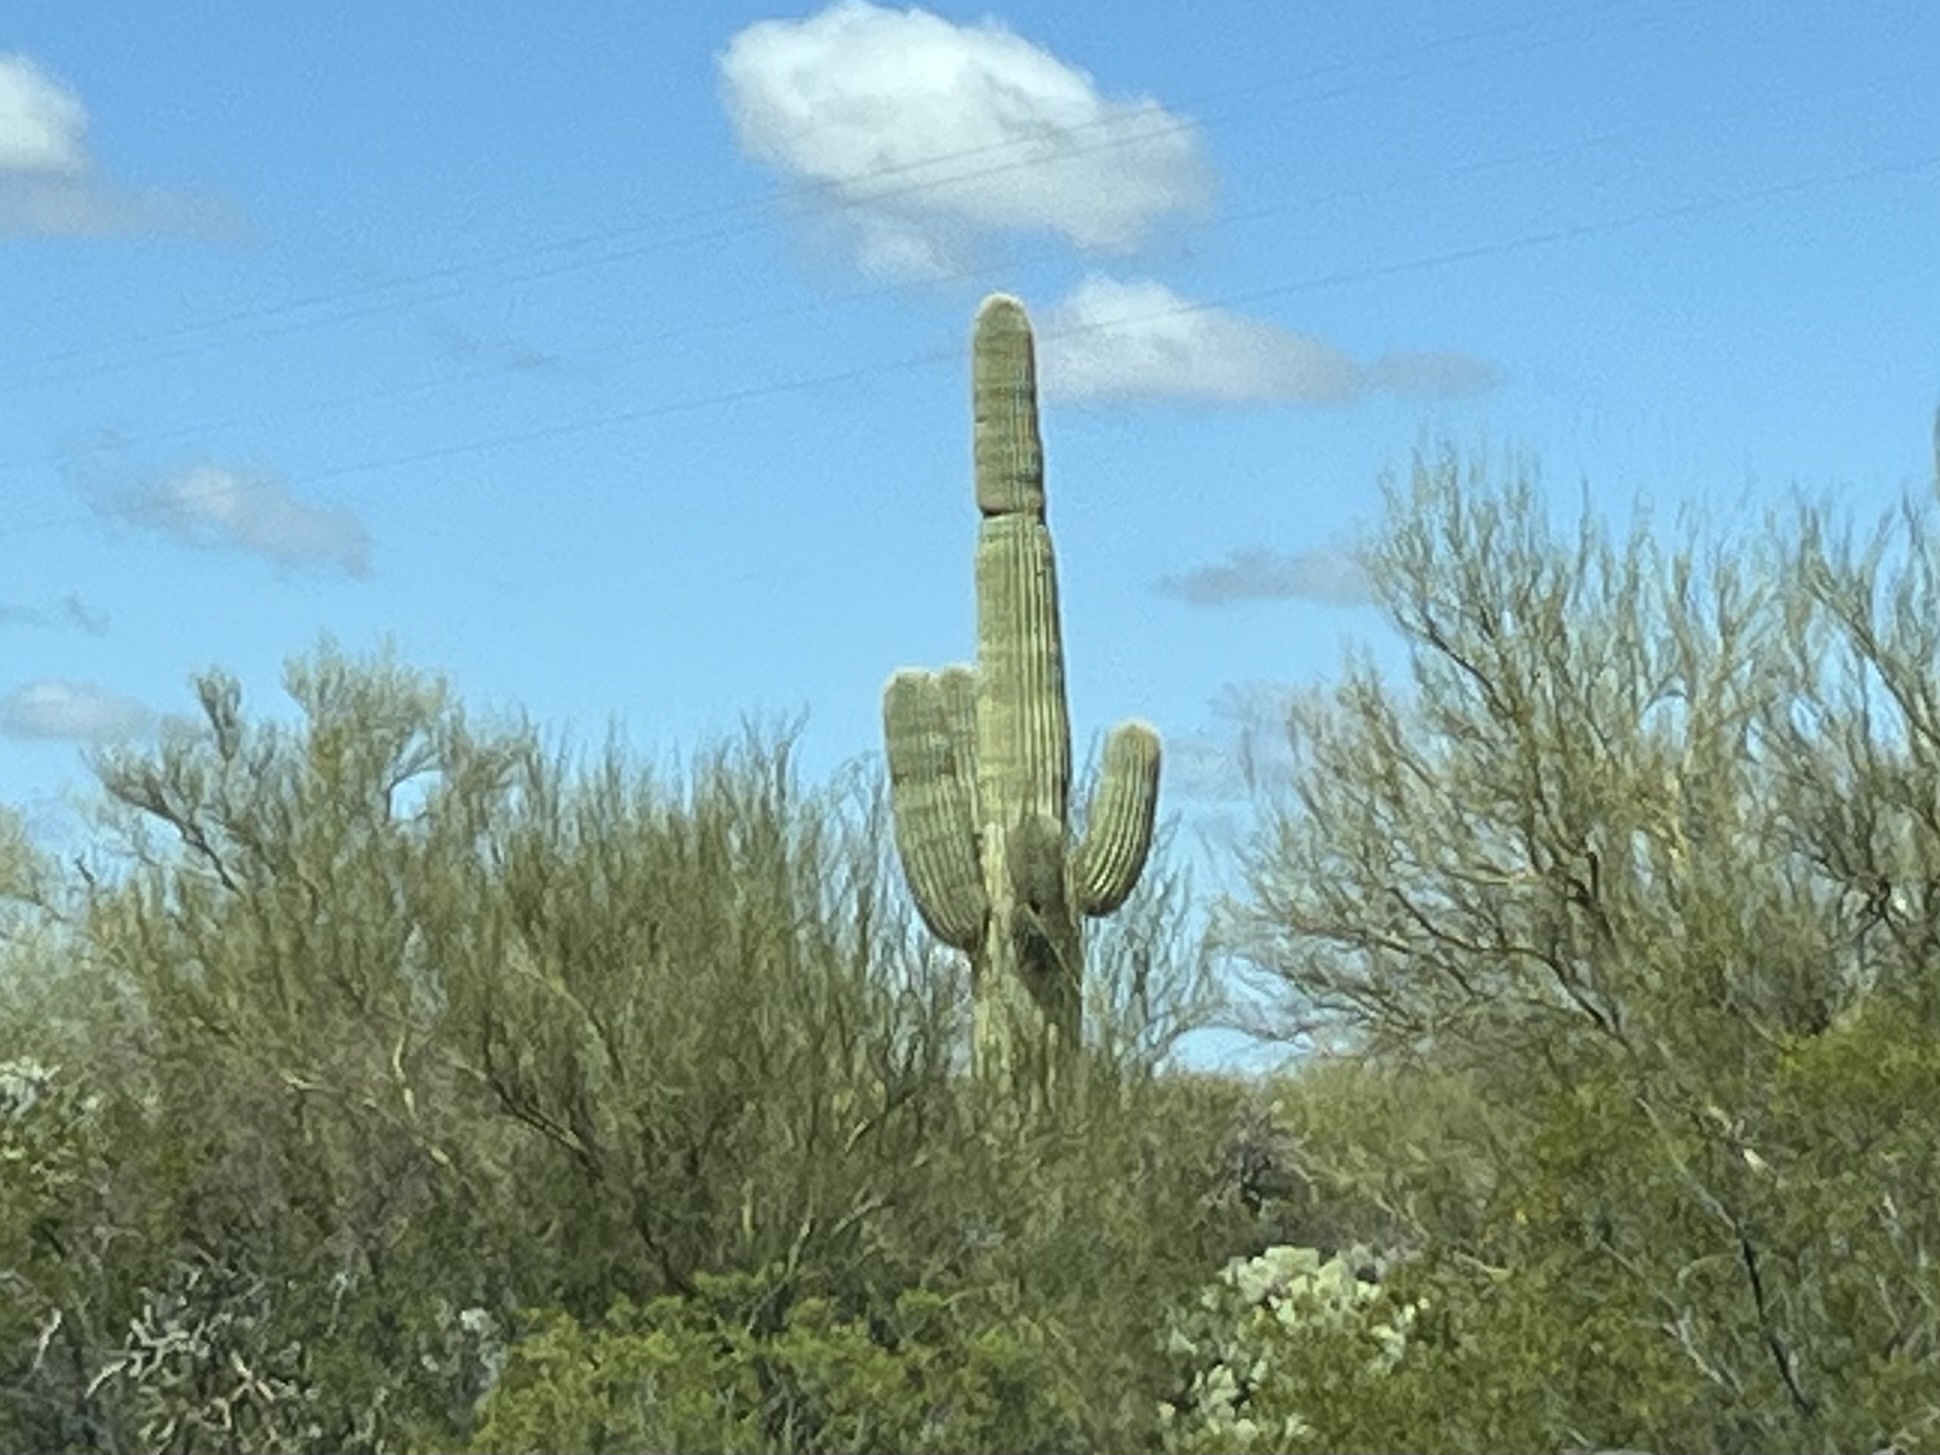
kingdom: Plantae
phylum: Tracheophyta
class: Magnoliopsida
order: Caryophyllales
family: Cactaceae
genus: Carnegiea
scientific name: Carnegiea gigantea
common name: Saguaro
